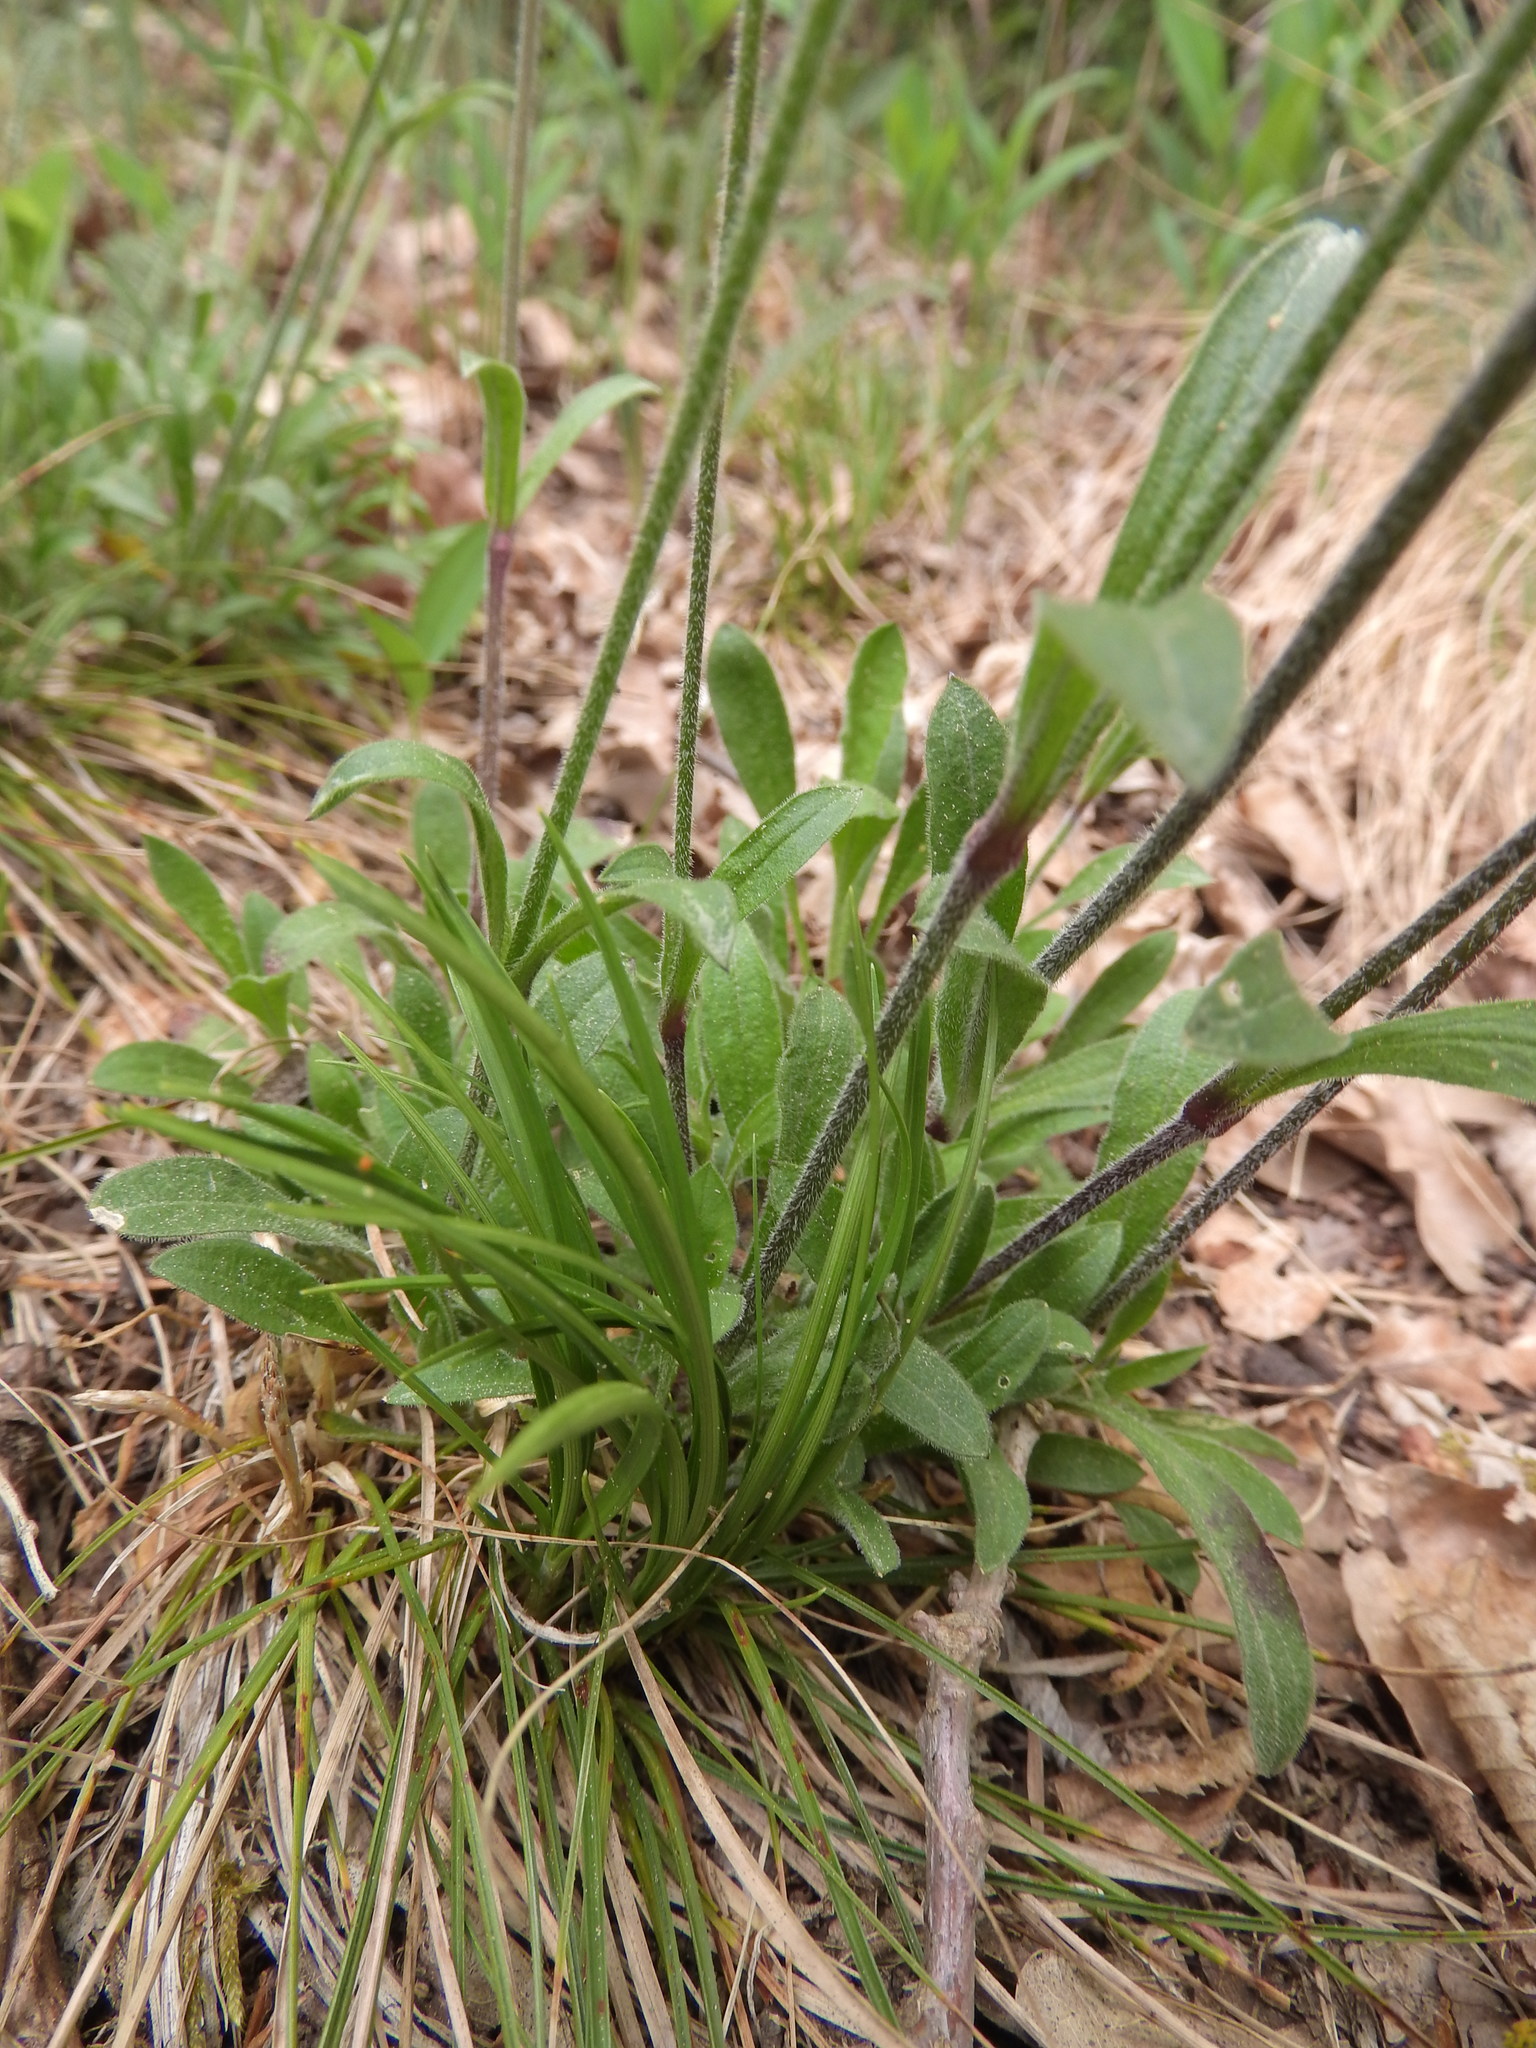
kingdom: Plantae
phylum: Tracheophyta
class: Magnoliopsida
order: Caryophyllales
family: Caryophyllaceae
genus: Silene
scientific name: Silene nutans
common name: Nottingham catchfly
